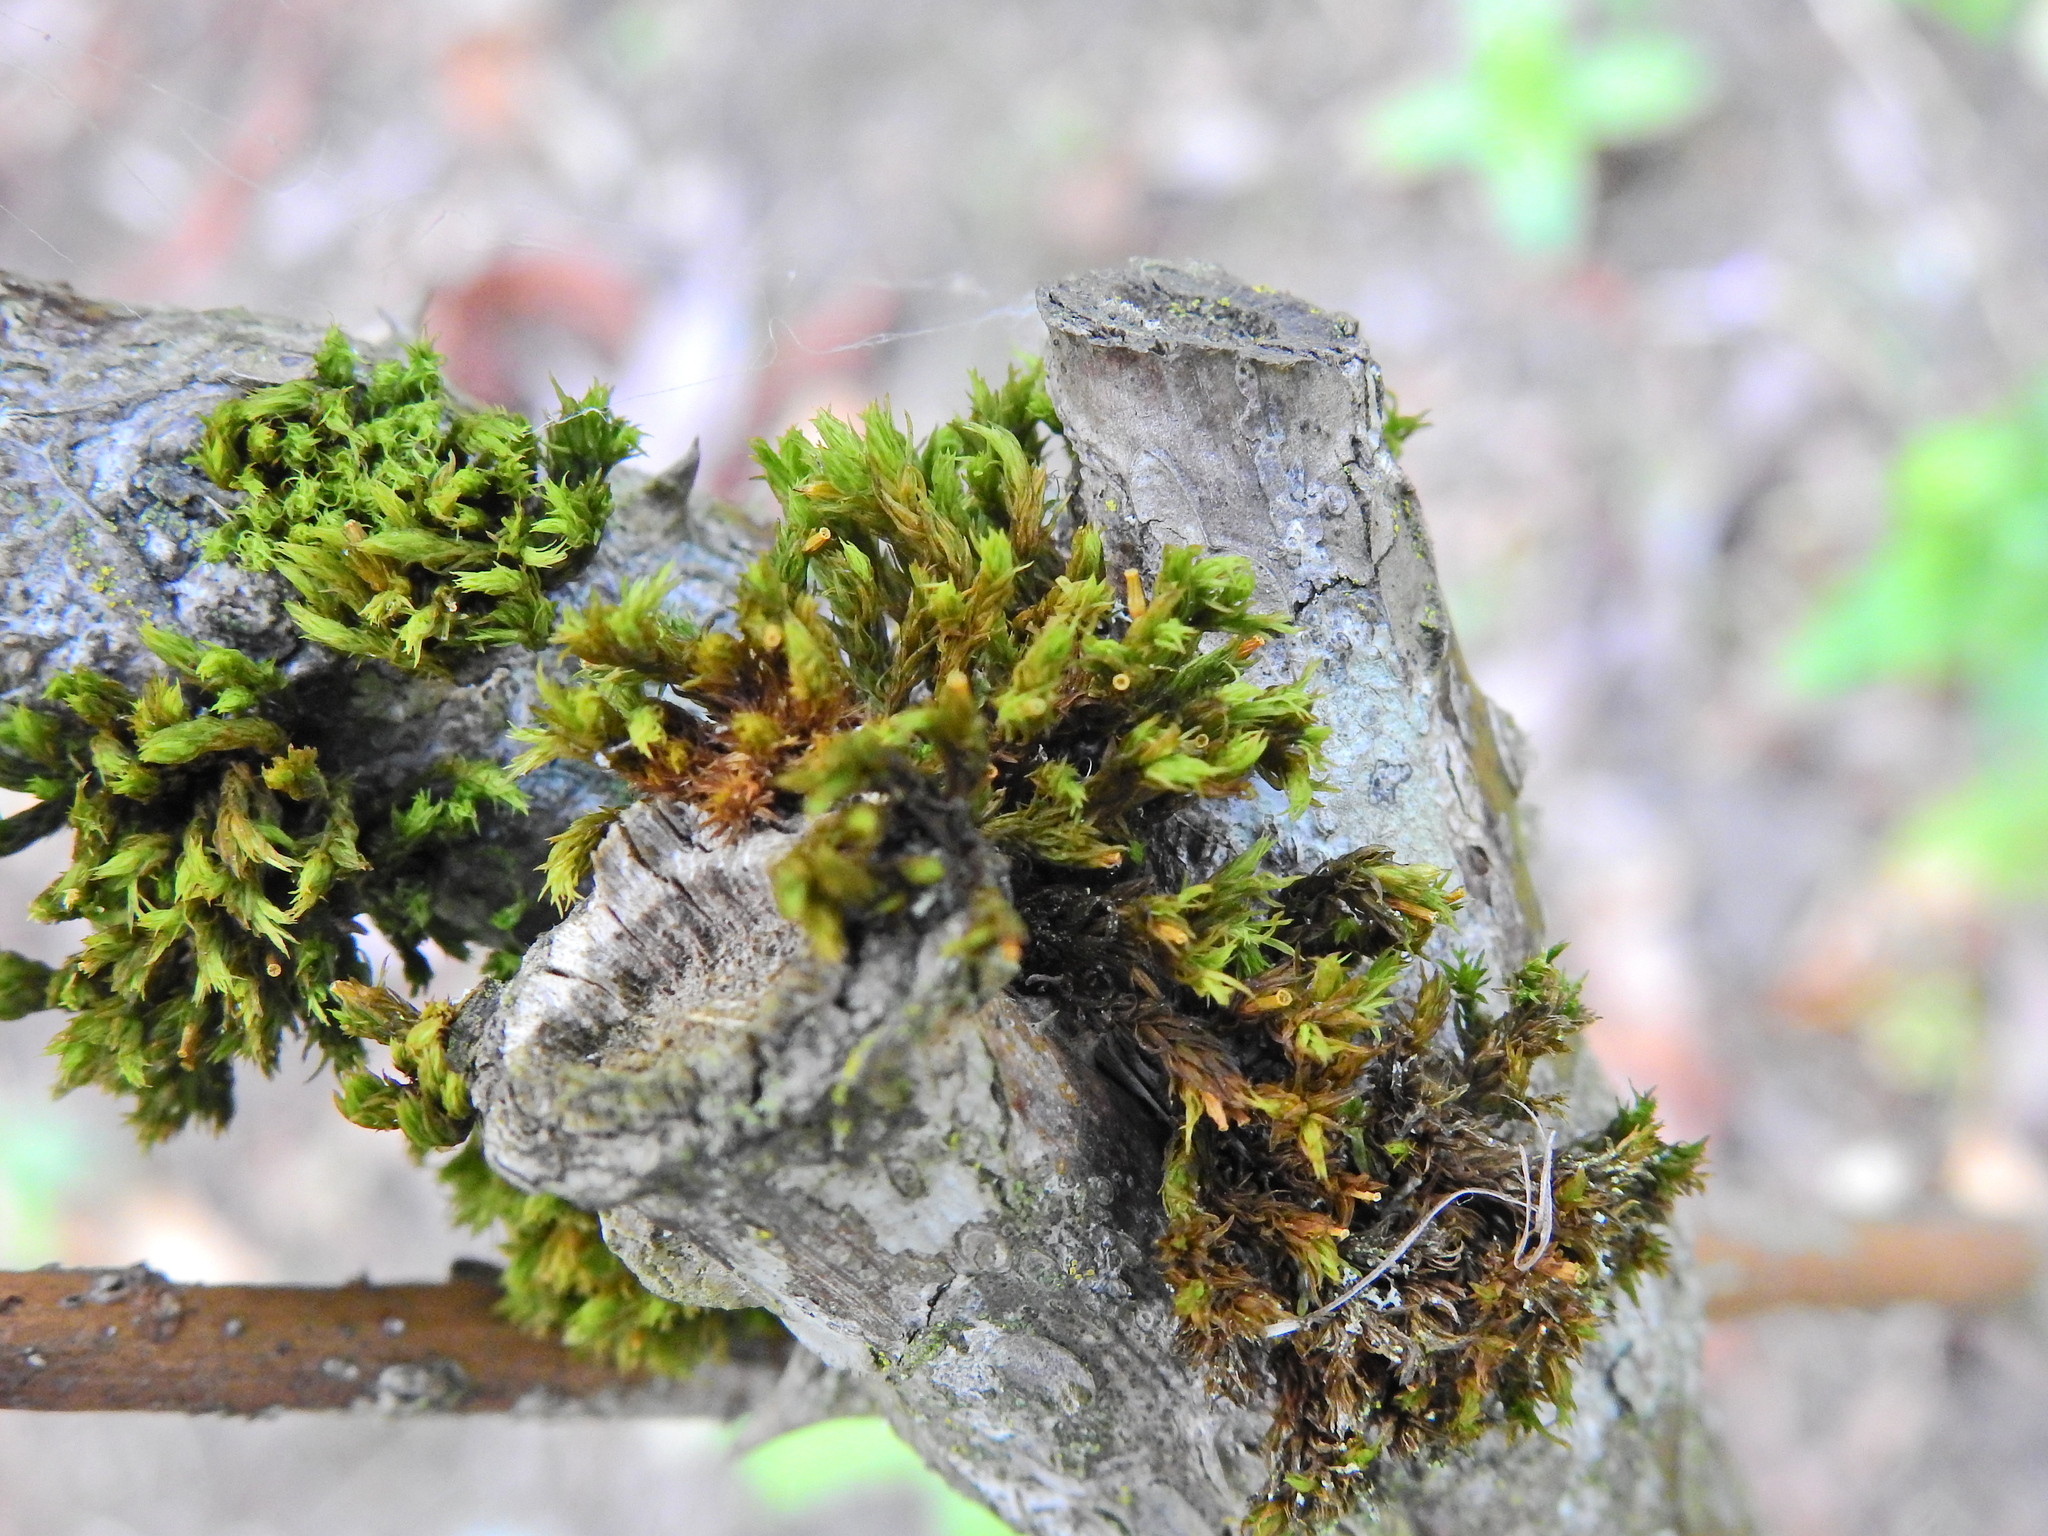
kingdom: Plantae
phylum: Bryophyta
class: Bryopsida
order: Orthotrichales
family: Orthotrichaceae
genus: Lewinskya
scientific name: Lewinskya affinis
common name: Wood bristle-moss
